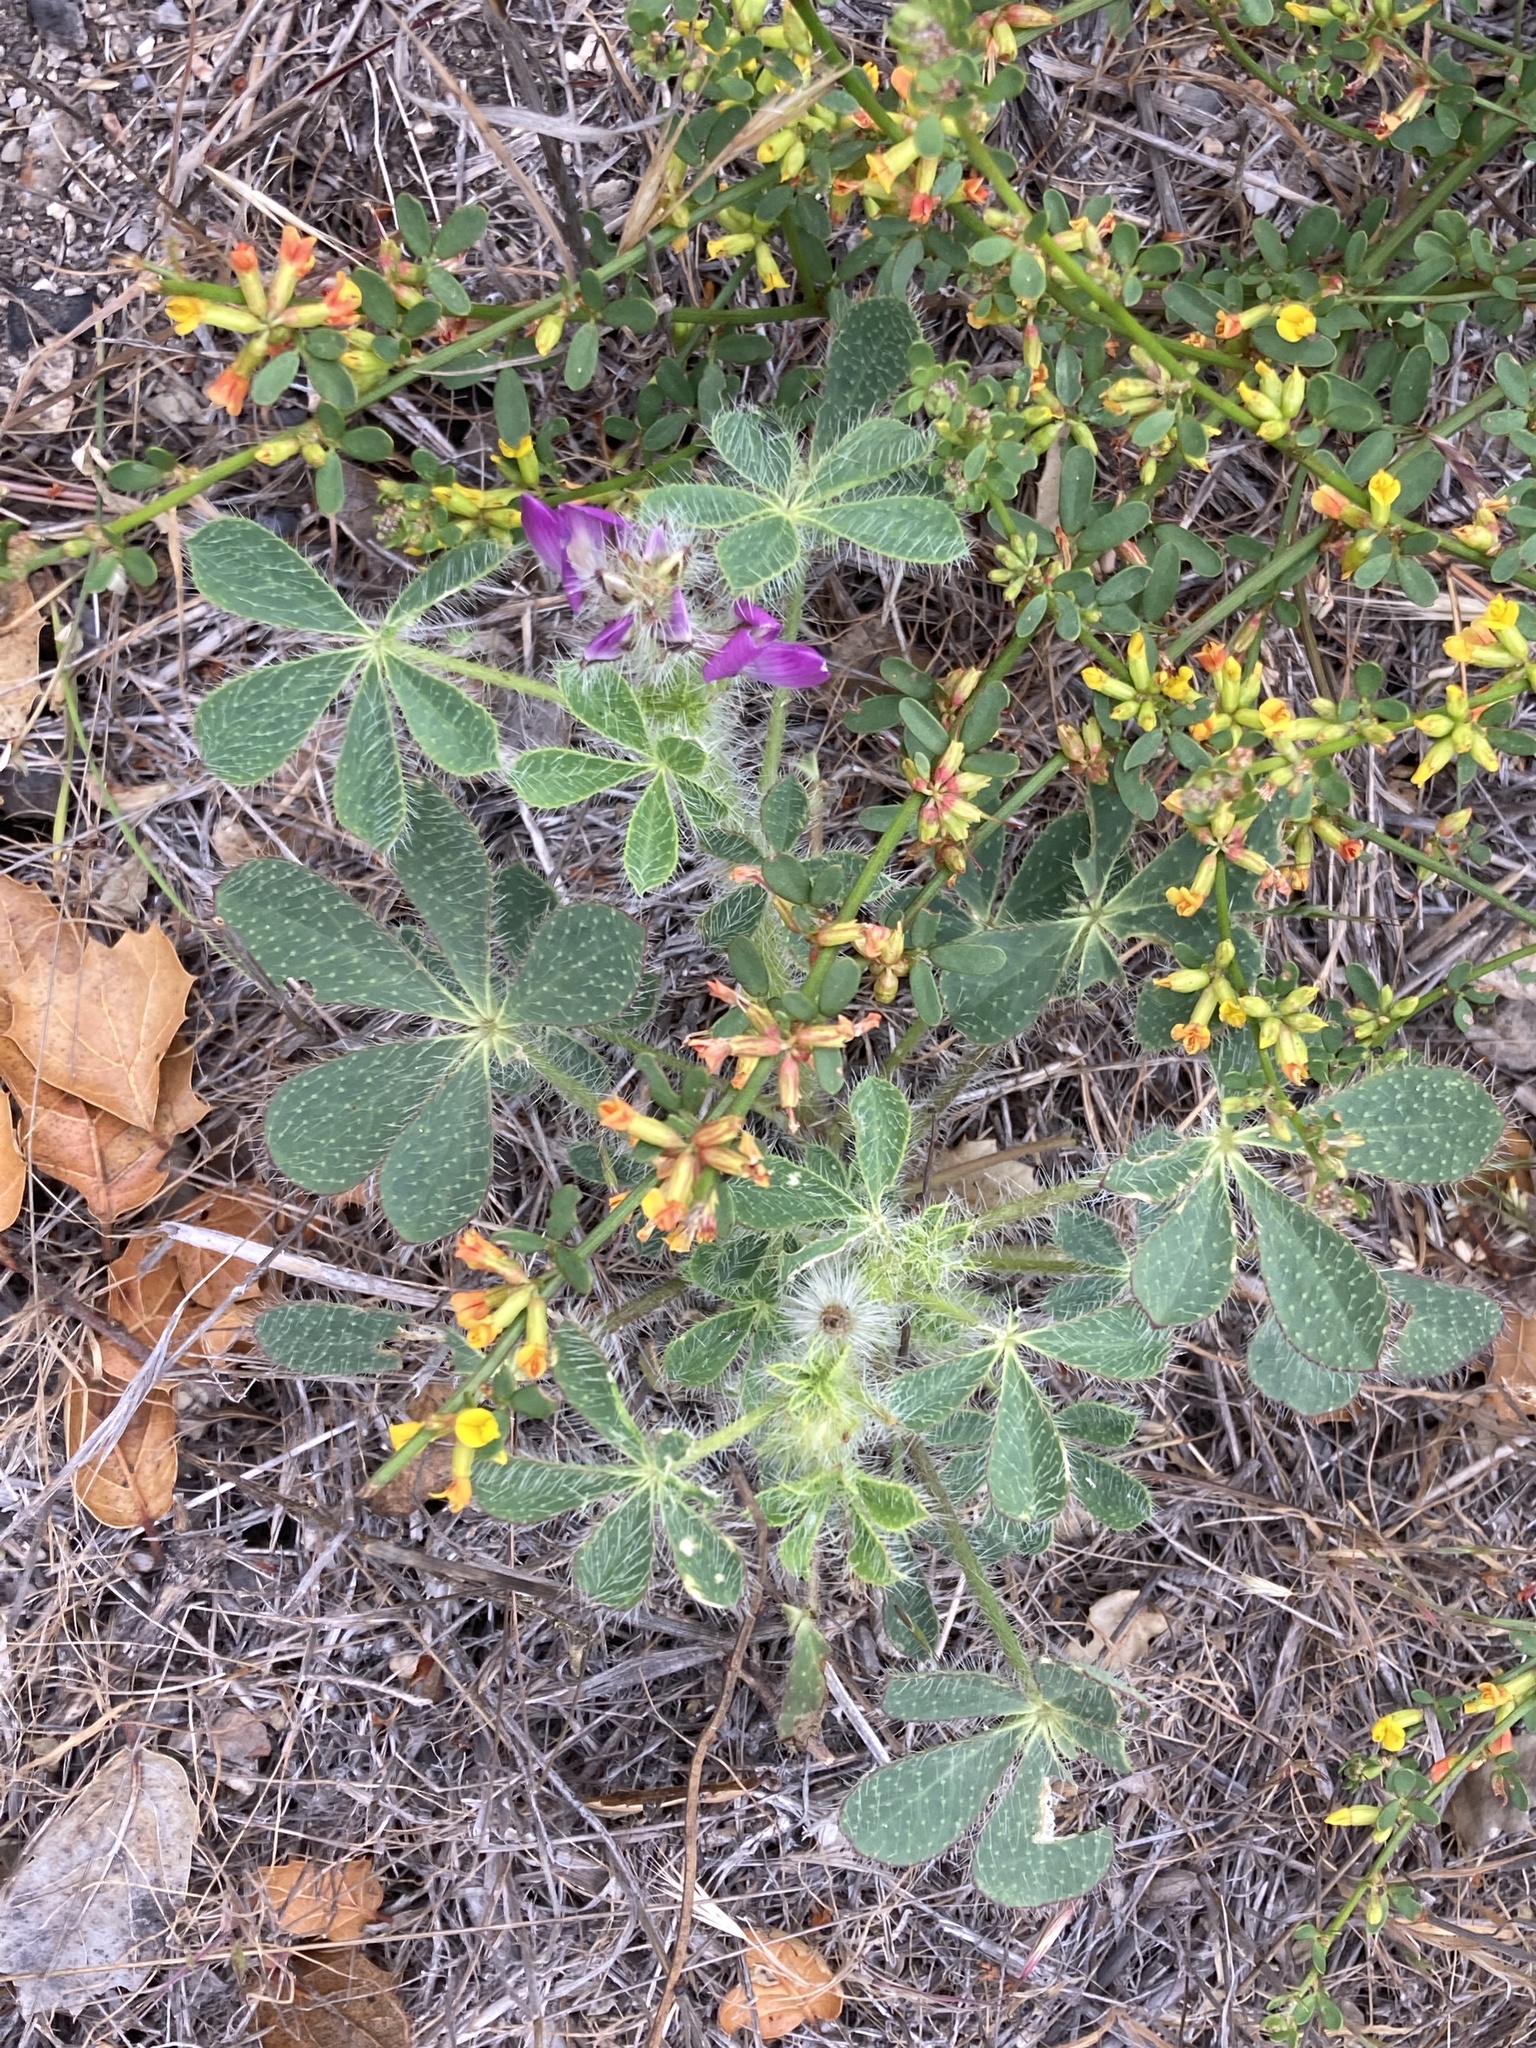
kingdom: Plantae
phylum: Tracheophyta
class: Magnoliopsida
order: Fabales
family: Fabaceae
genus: Lupinus
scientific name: Lupinus hirsutissimus
